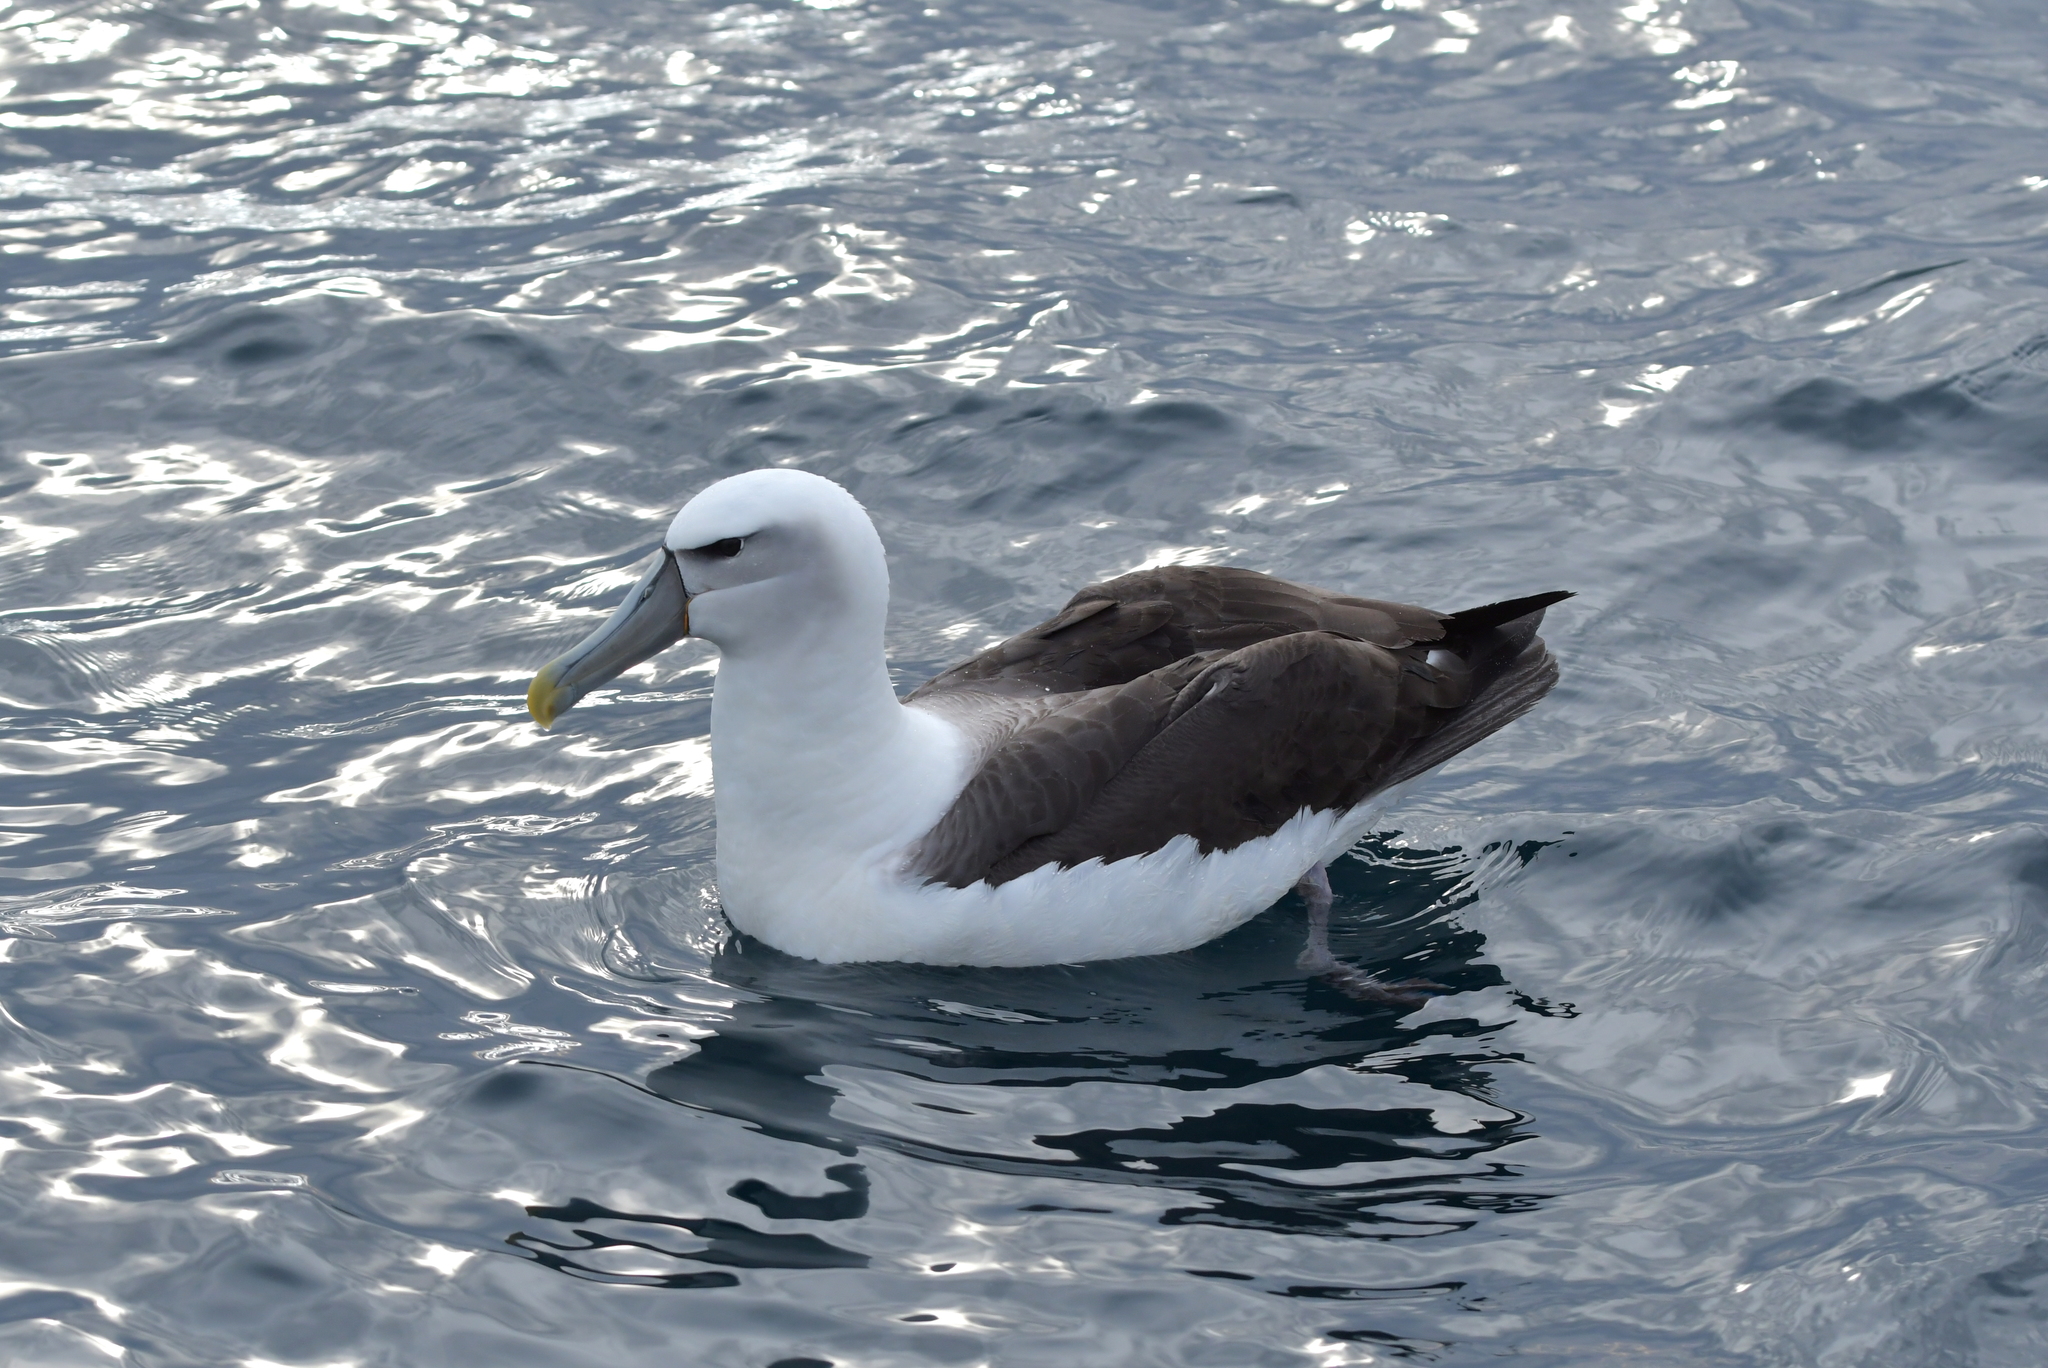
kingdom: Animalia
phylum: Chordata
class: Aves
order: Procellariiformes
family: Diomedeidae
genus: Thalassarche
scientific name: Thalassarche cauta
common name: Shy albatross
